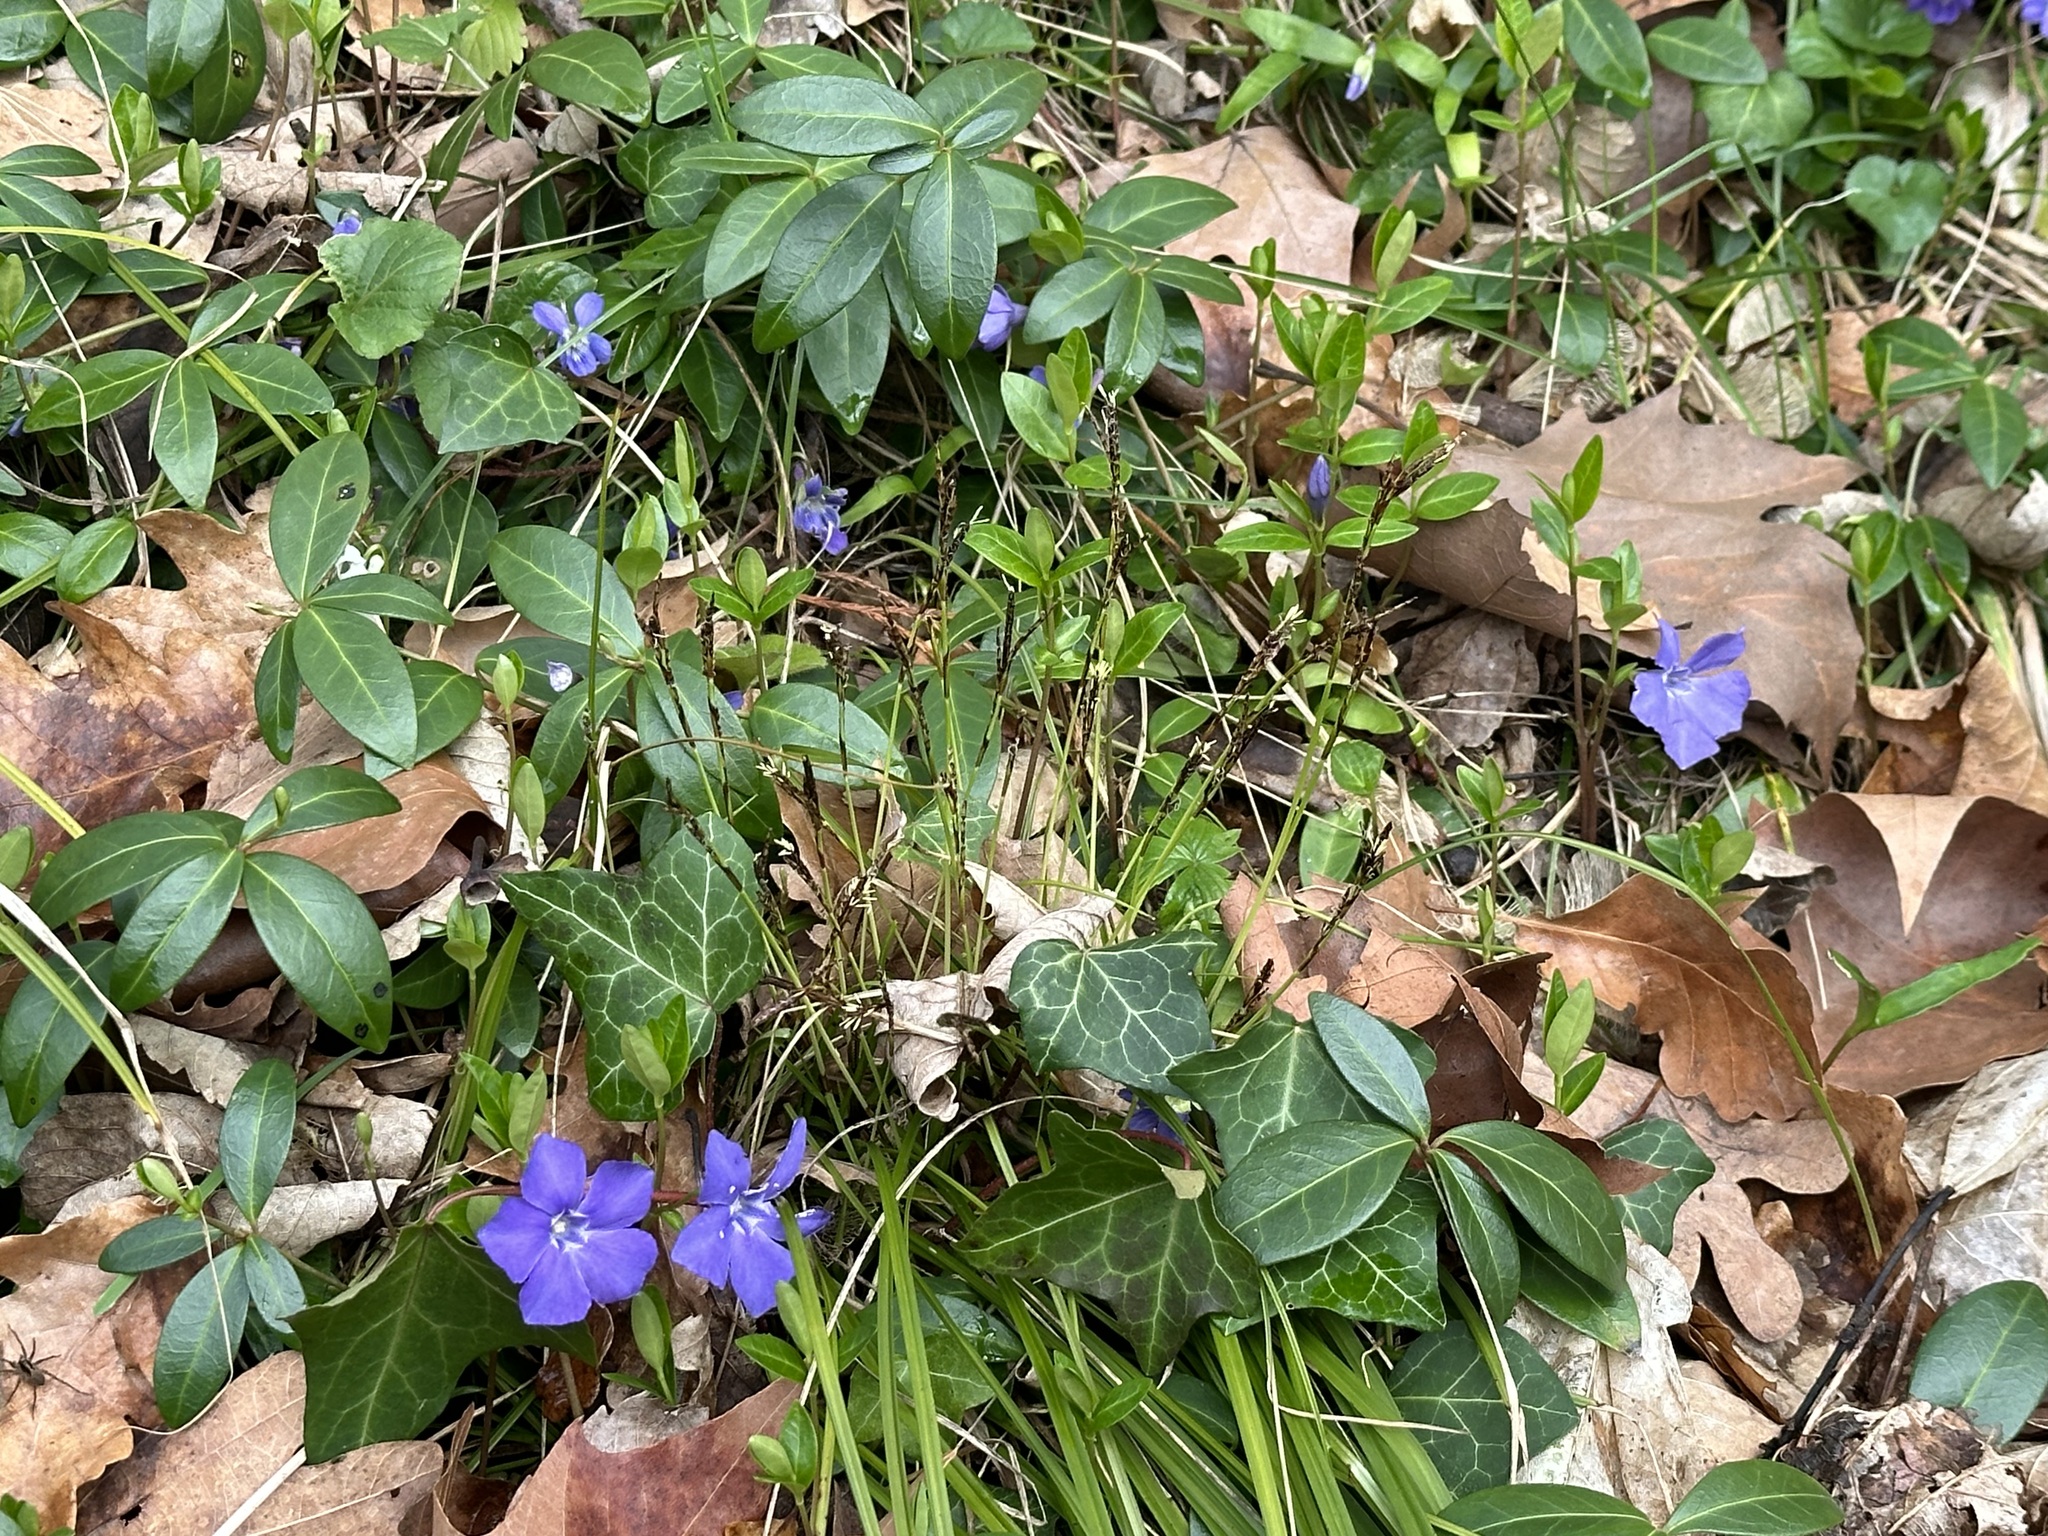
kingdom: Plantae
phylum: Tracheophyta
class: Liliopsida
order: Poales
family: Cyperaceae
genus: Carex
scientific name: Carex digitata
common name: Fingered sedge
